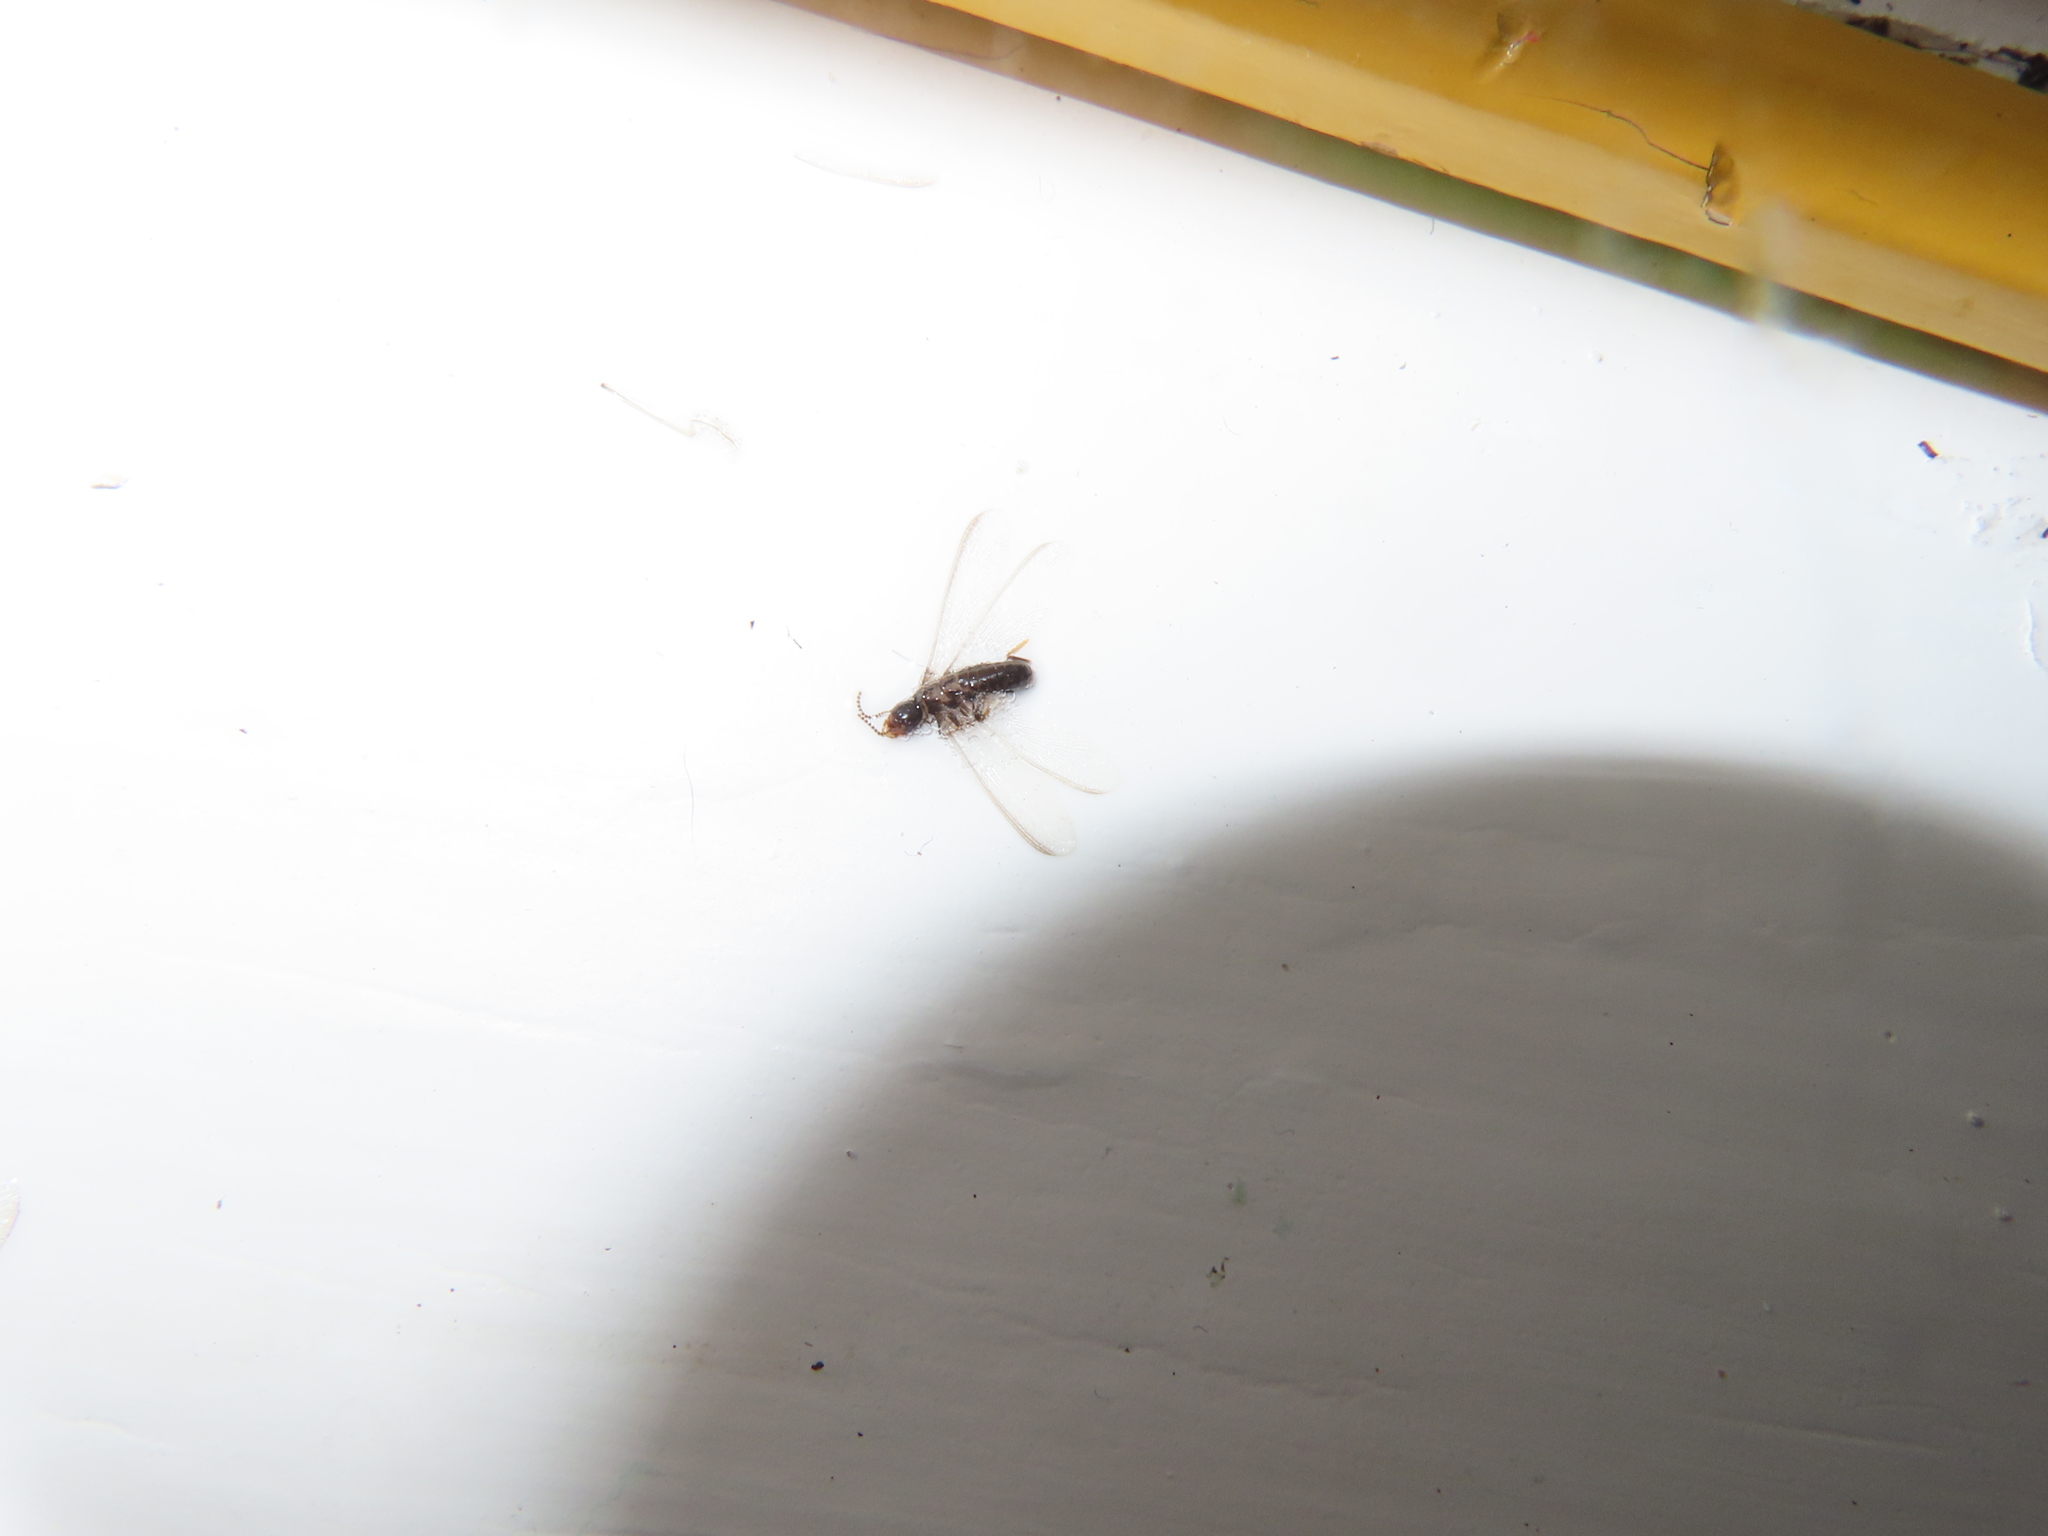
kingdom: Animalia
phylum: Arthropoda
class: Insecta
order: Blattodea
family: Rhinotermitidae
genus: Reticulitermes
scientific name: Reticulitermes flavipes
